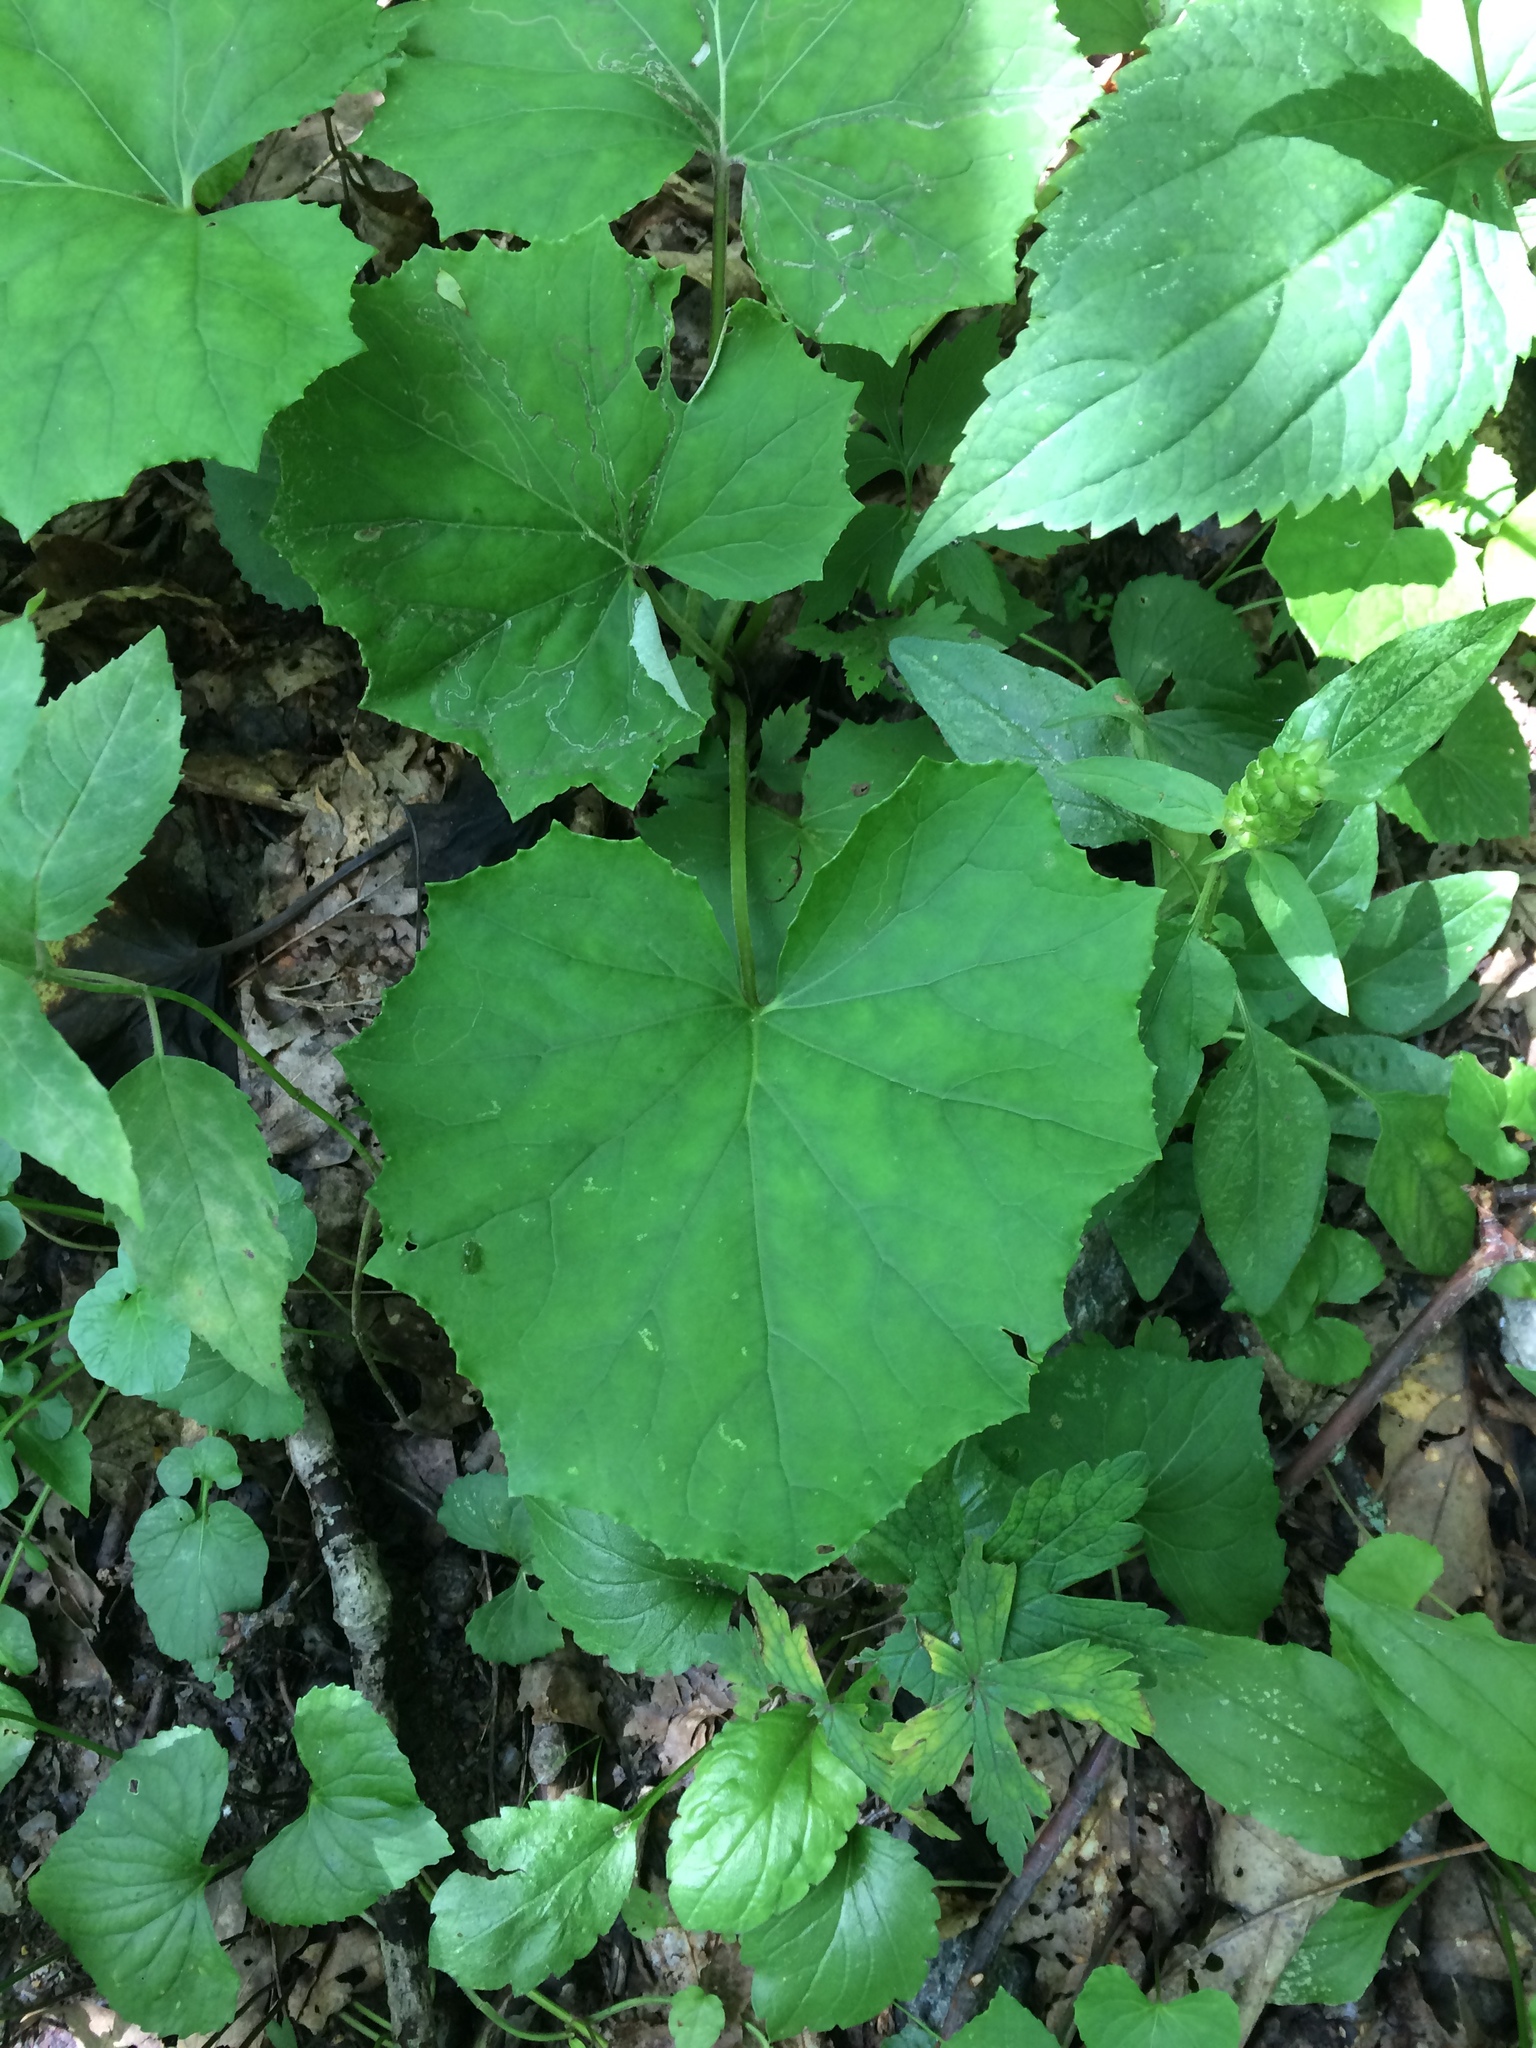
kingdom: Plantae
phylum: Tracheophyta
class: Magnoliopsida
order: Asterales
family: Asteraceae
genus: Tussilago
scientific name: Tussilago farfara
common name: Coltsfoot
